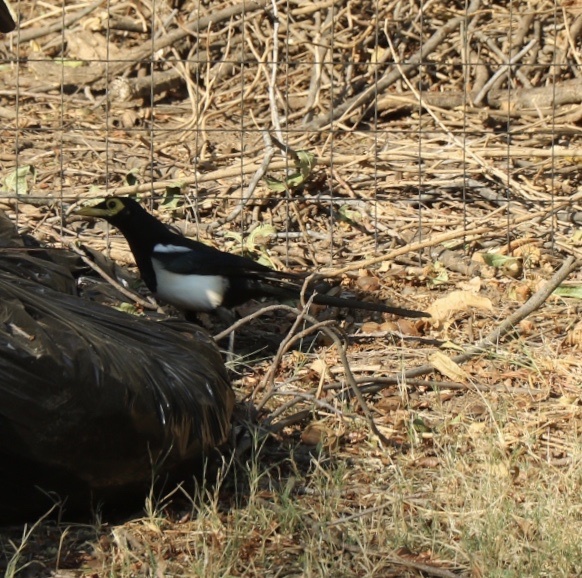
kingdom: Animalia
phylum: Chordata
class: Aves
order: Passeriformes
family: Corvidae
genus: Pica
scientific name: Pica nuttalli
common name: Yellow-billed magpie
